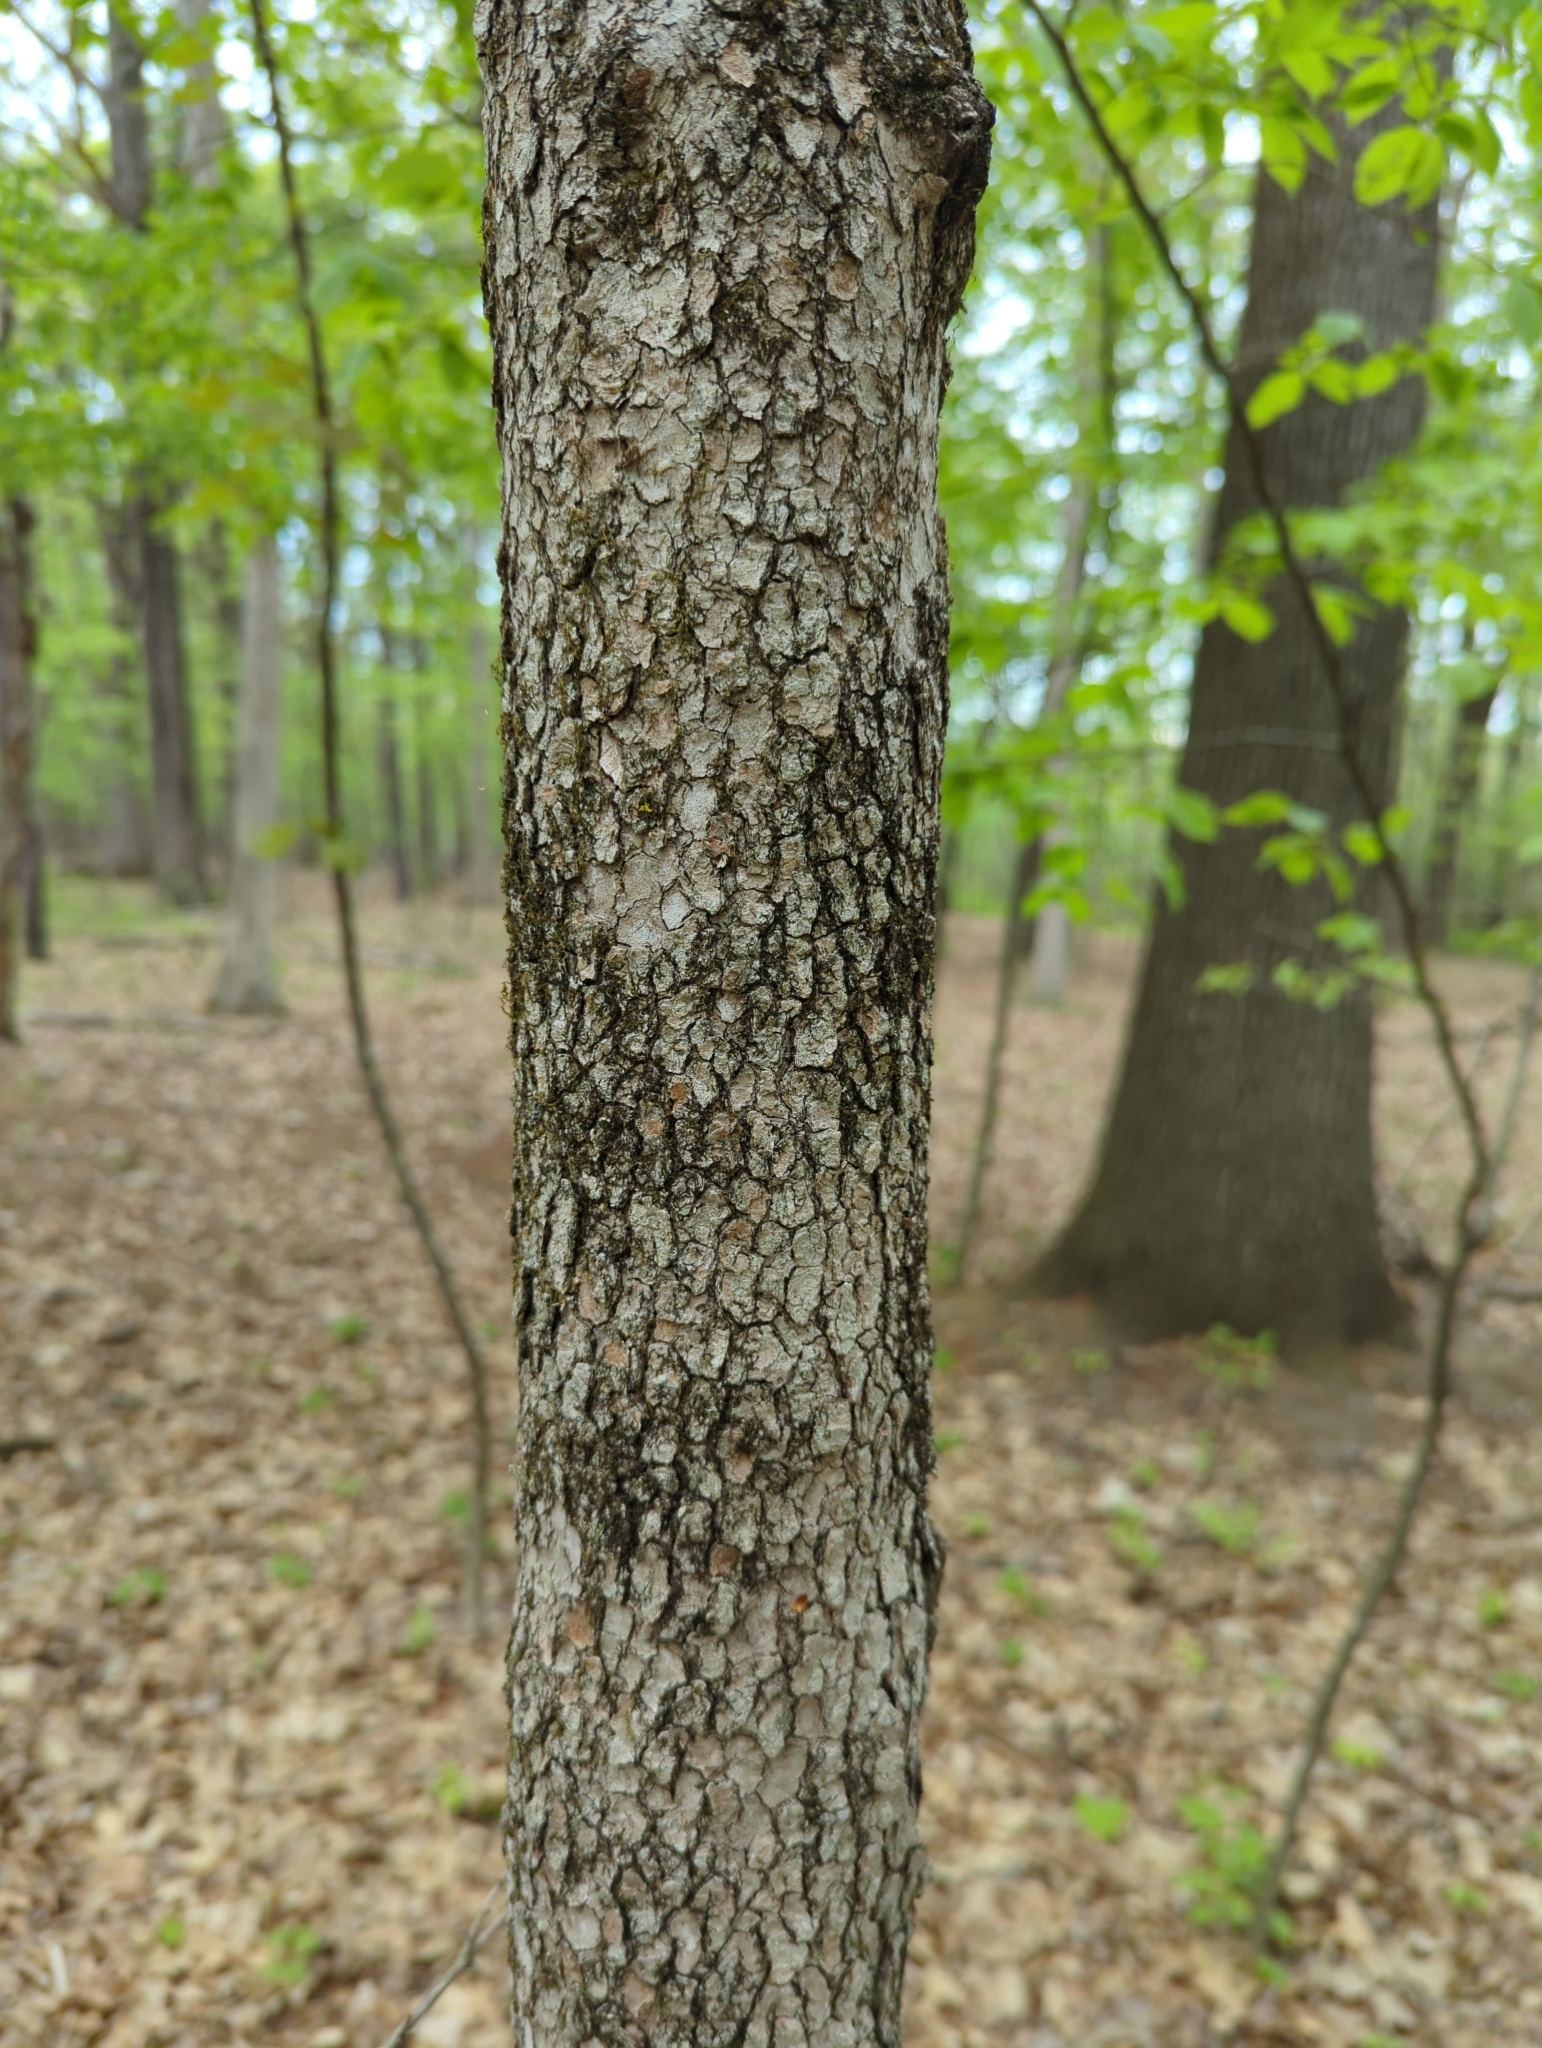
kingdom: Plantae
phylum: Tracheophyta
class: Magnoliopsida
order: Cornales
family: Cornaceae
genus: Cornus
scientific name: Cornus florida
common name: Flowering dogwood
